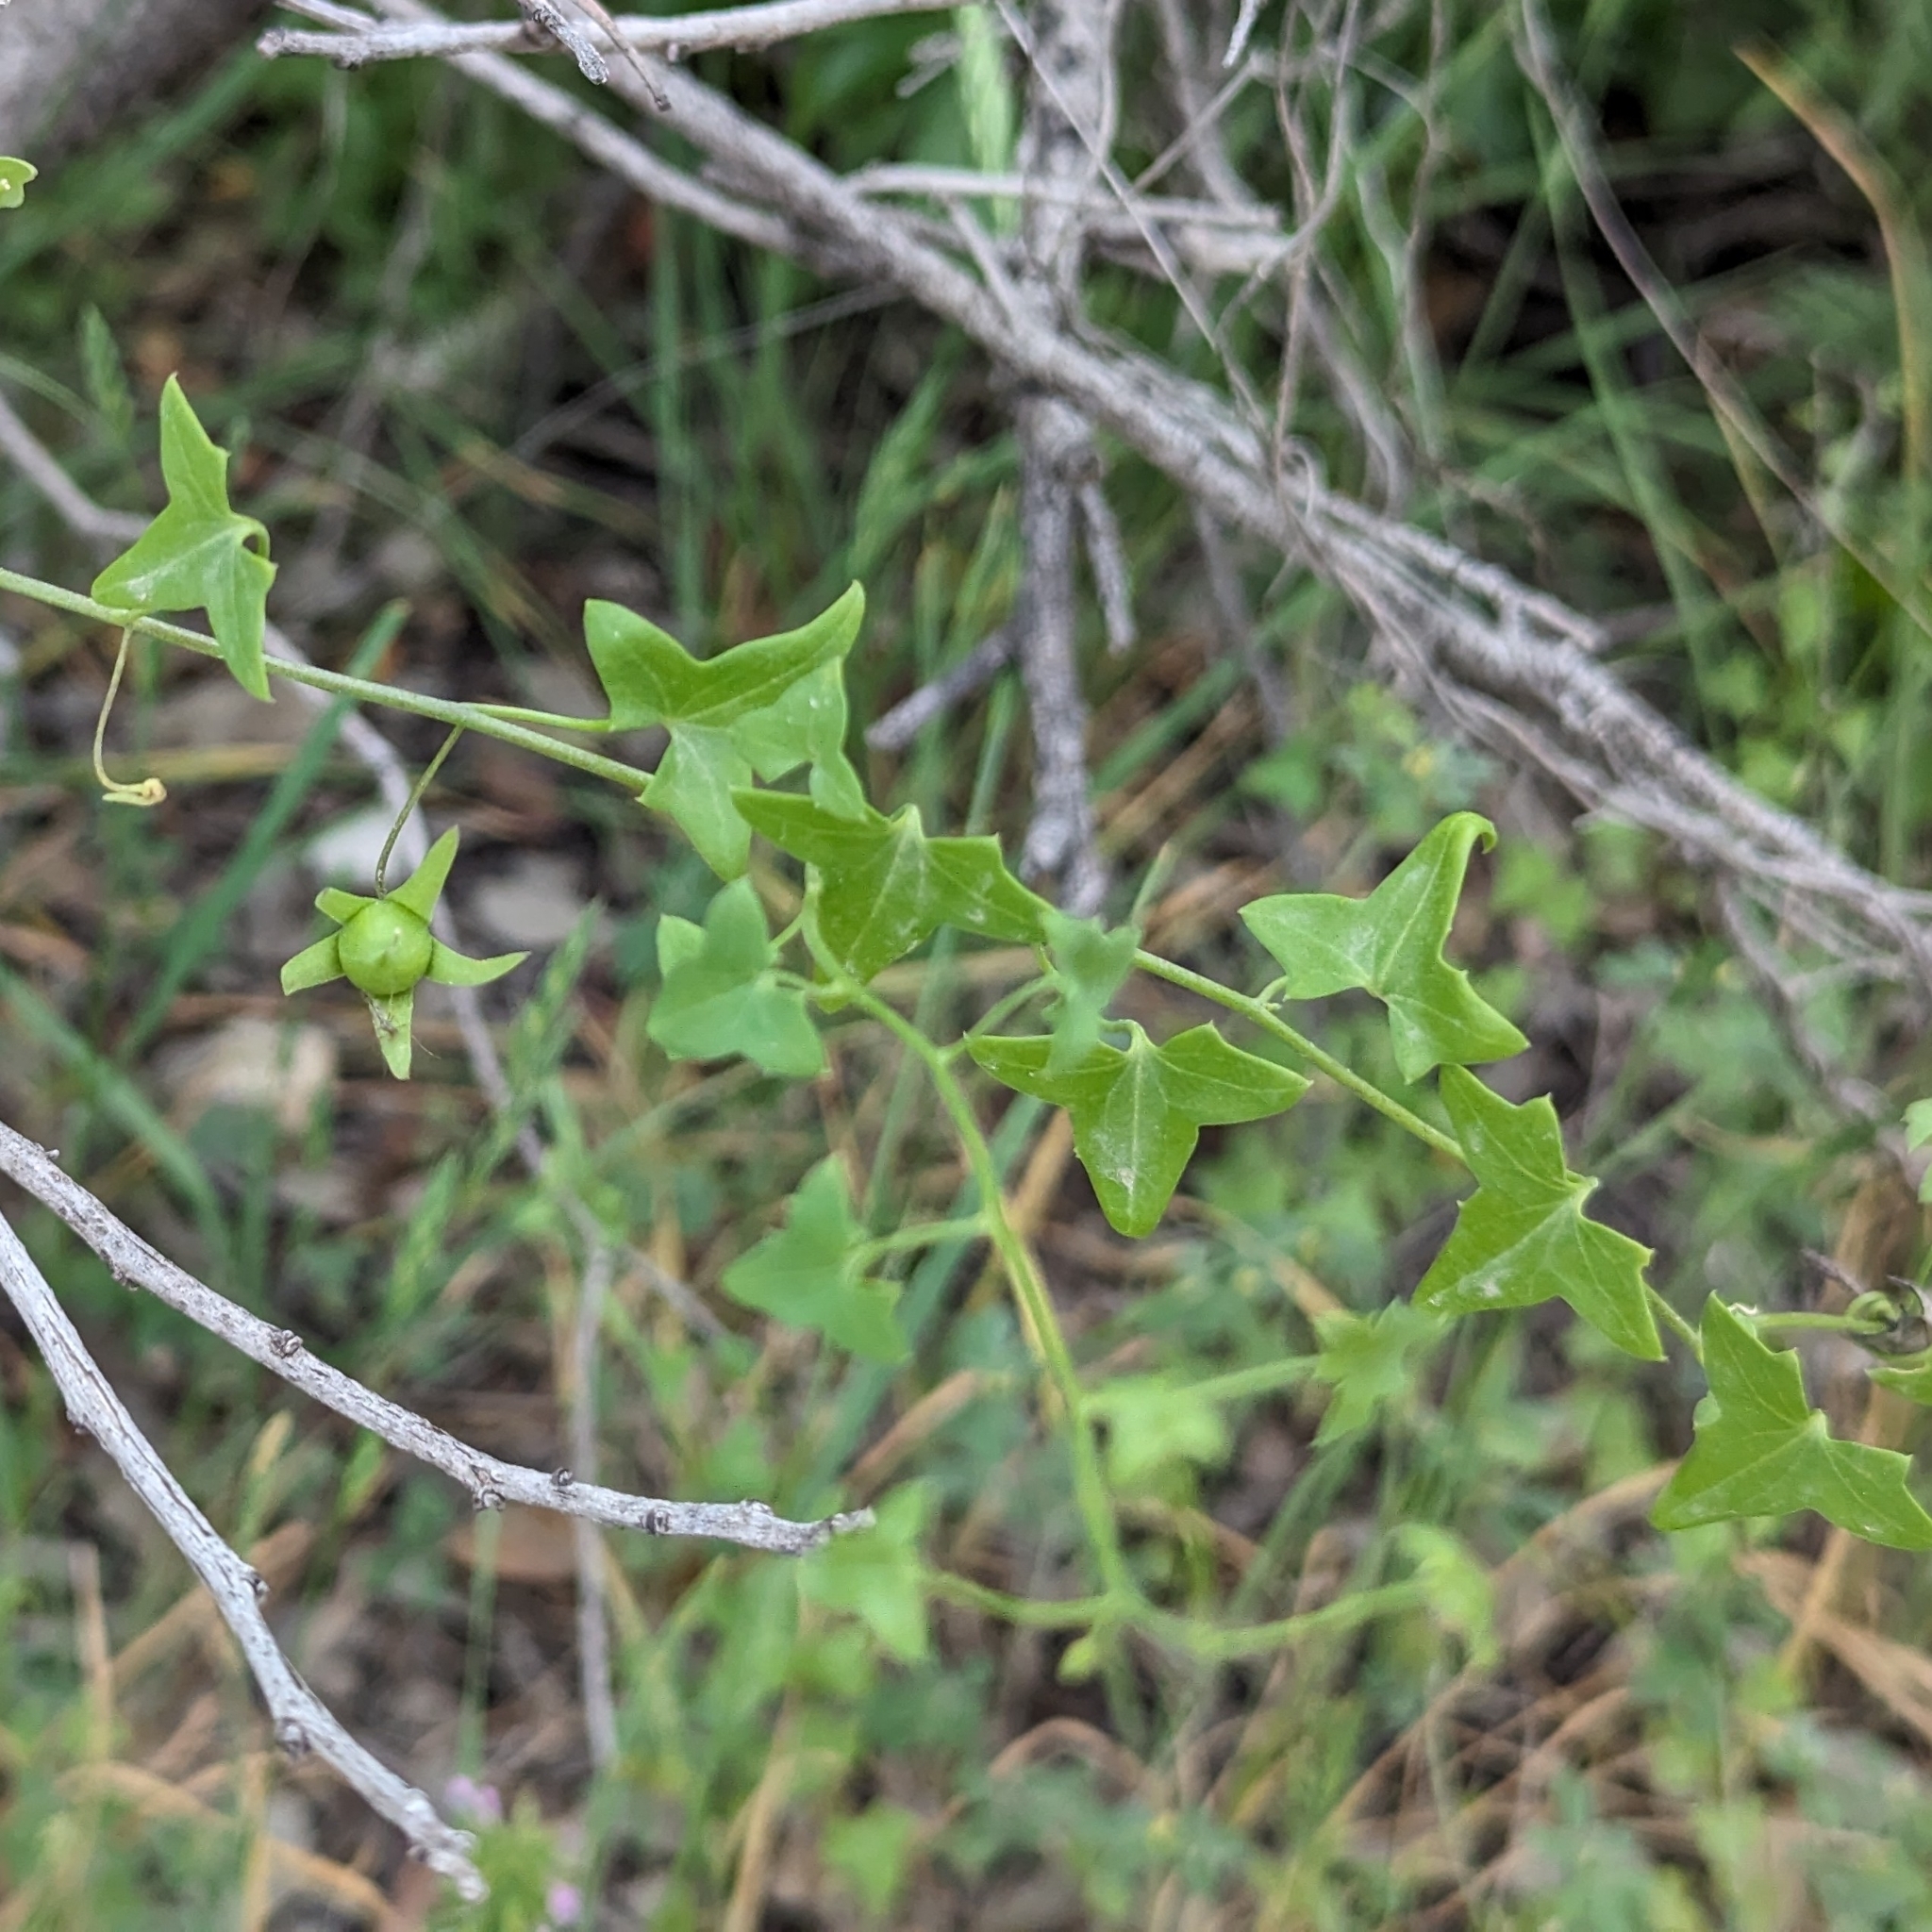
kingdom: Plantae
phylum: Tracheophyta
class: Magnoliopsida
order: Lamiales
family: Plantaginaceae
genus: Maurandella
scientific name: Maurandella antirrhiniflora
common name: Violet twining-snapdragon
